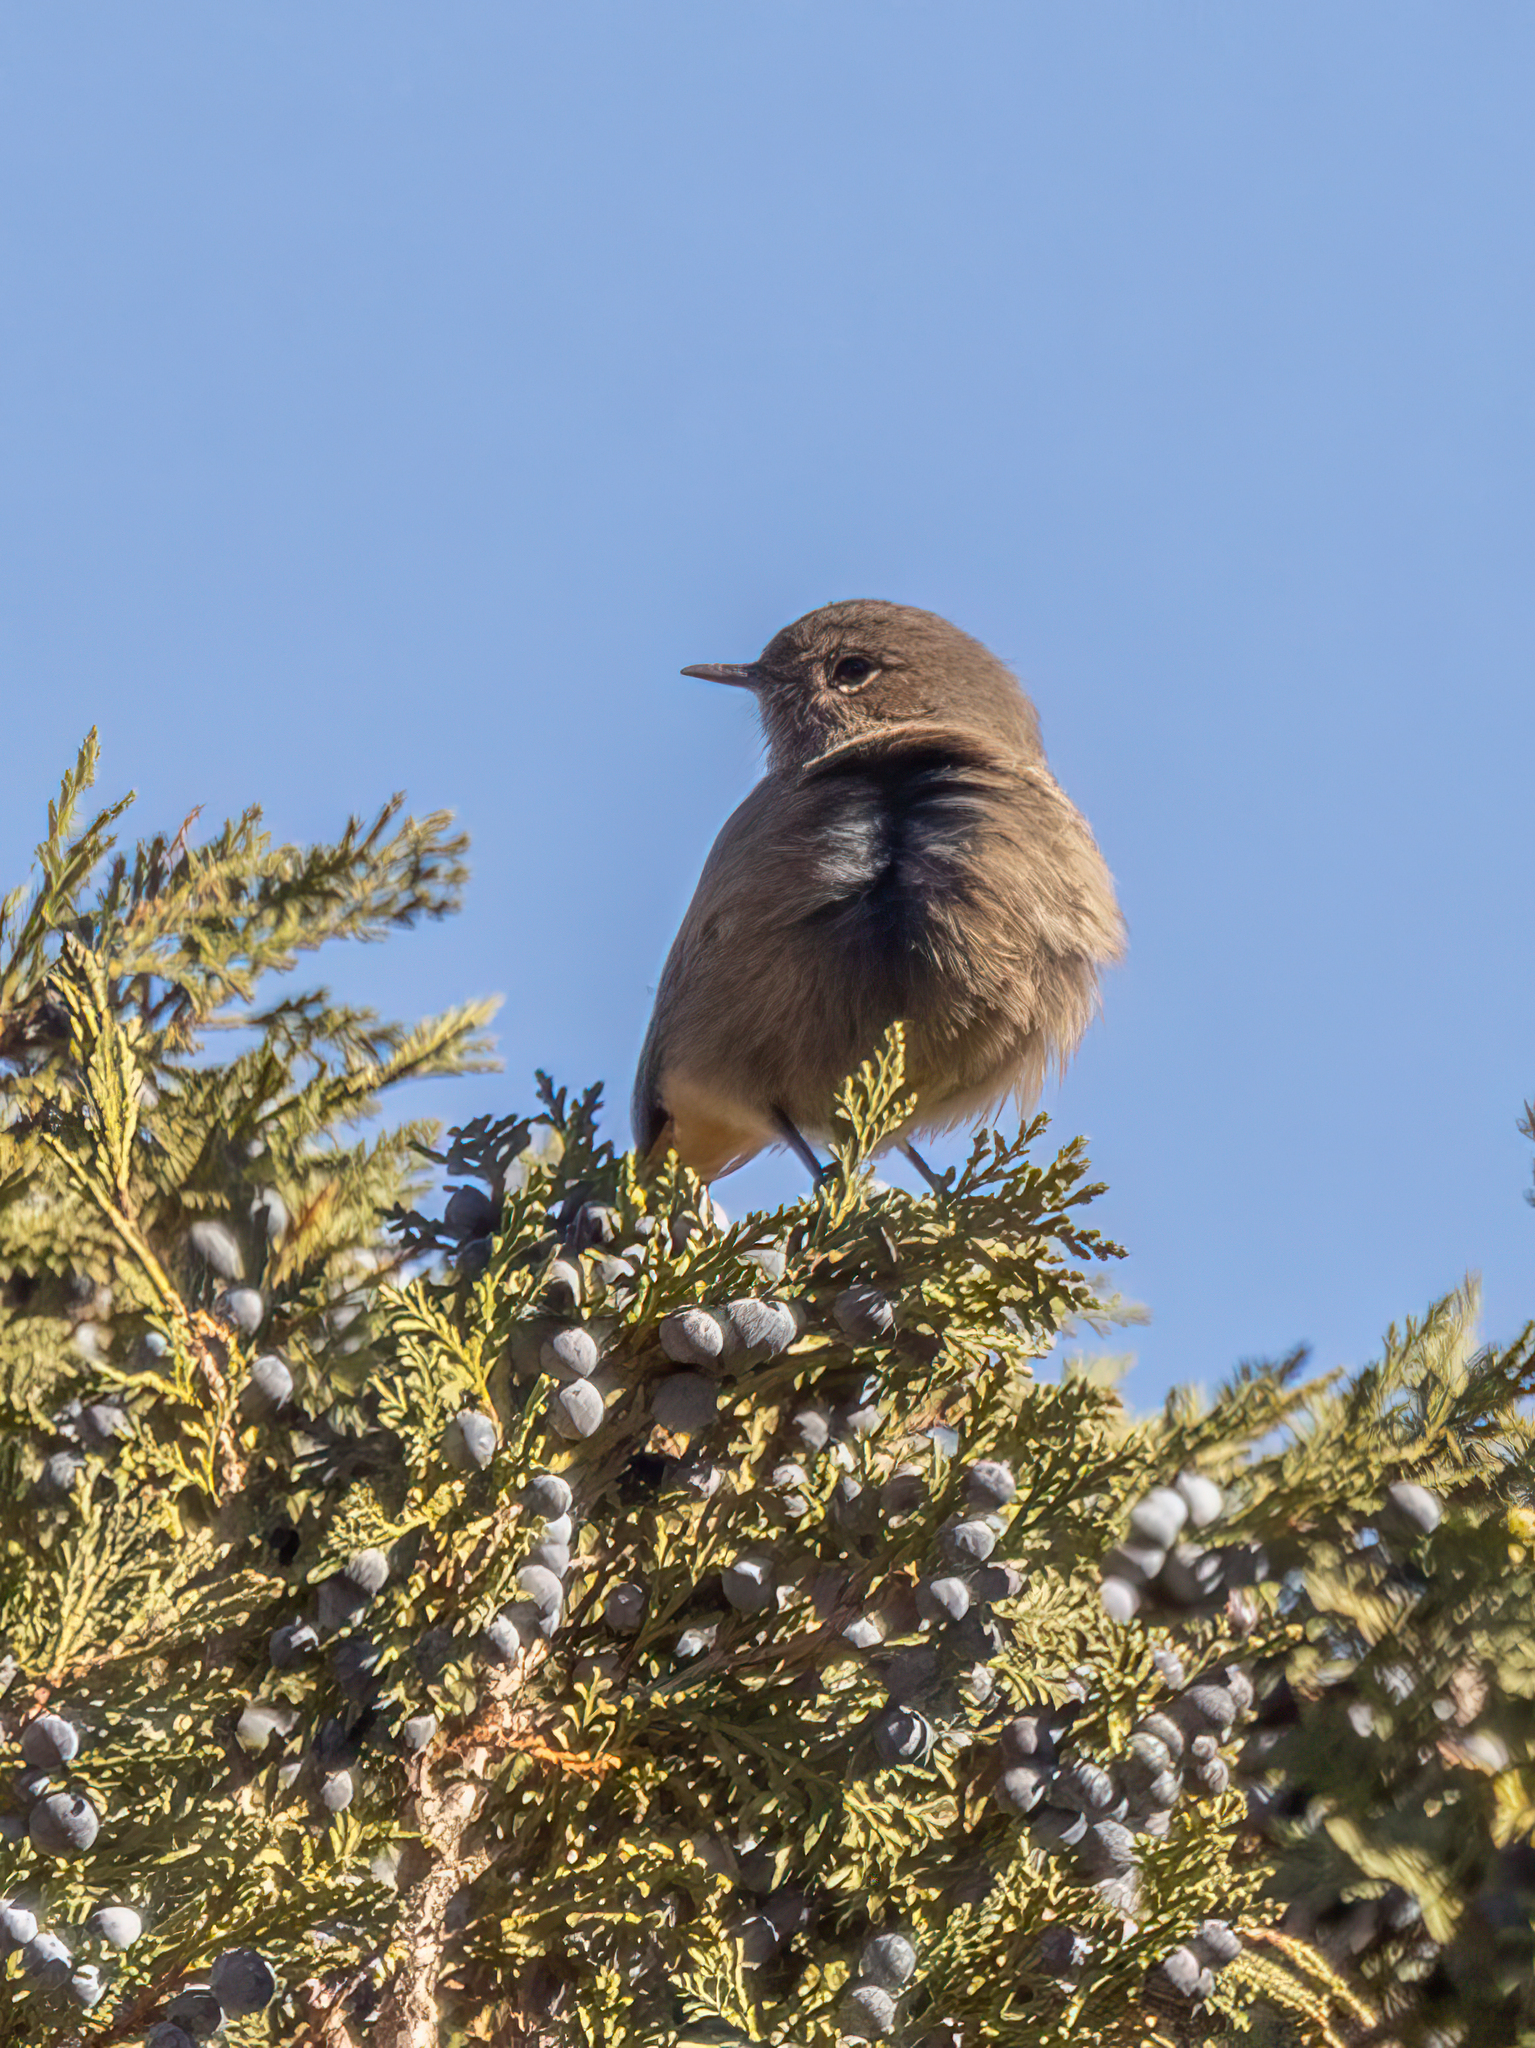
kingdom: Animalia
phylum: Chordata
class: Aves
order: Passeriformes
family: Muscicapidae
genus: Phoenicurus
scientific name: Phoenicurus ochruros
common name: Black redstart
